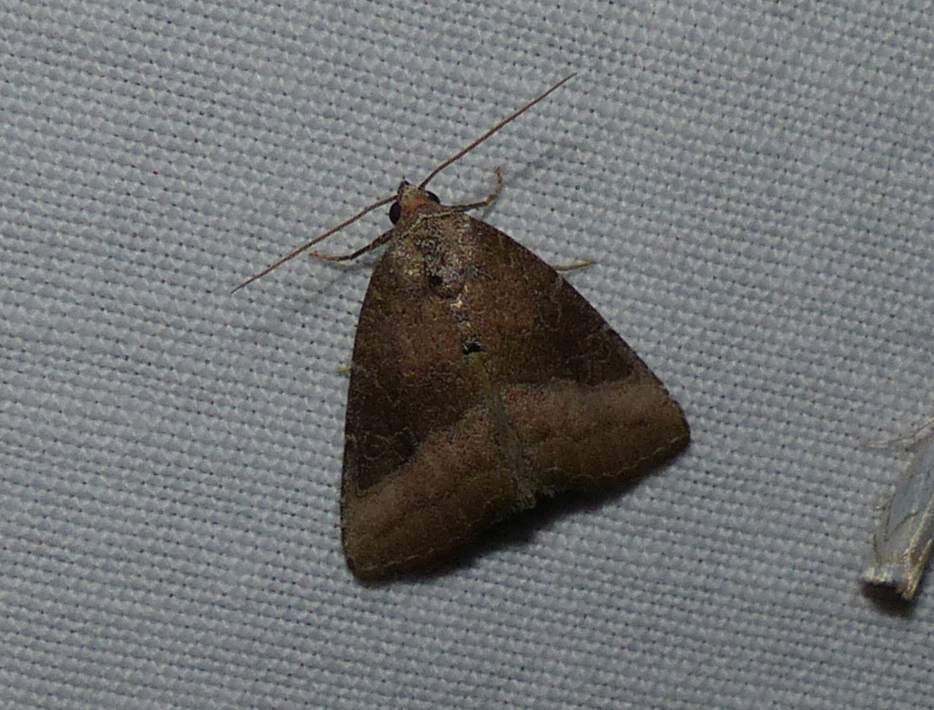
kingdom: Animalia
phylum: Arthropoda
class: Insecta
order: Lepidoptera
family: Noctuidae
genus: Ogdoconta
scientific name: Ogdoconta cinereola
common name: Common pinkband
